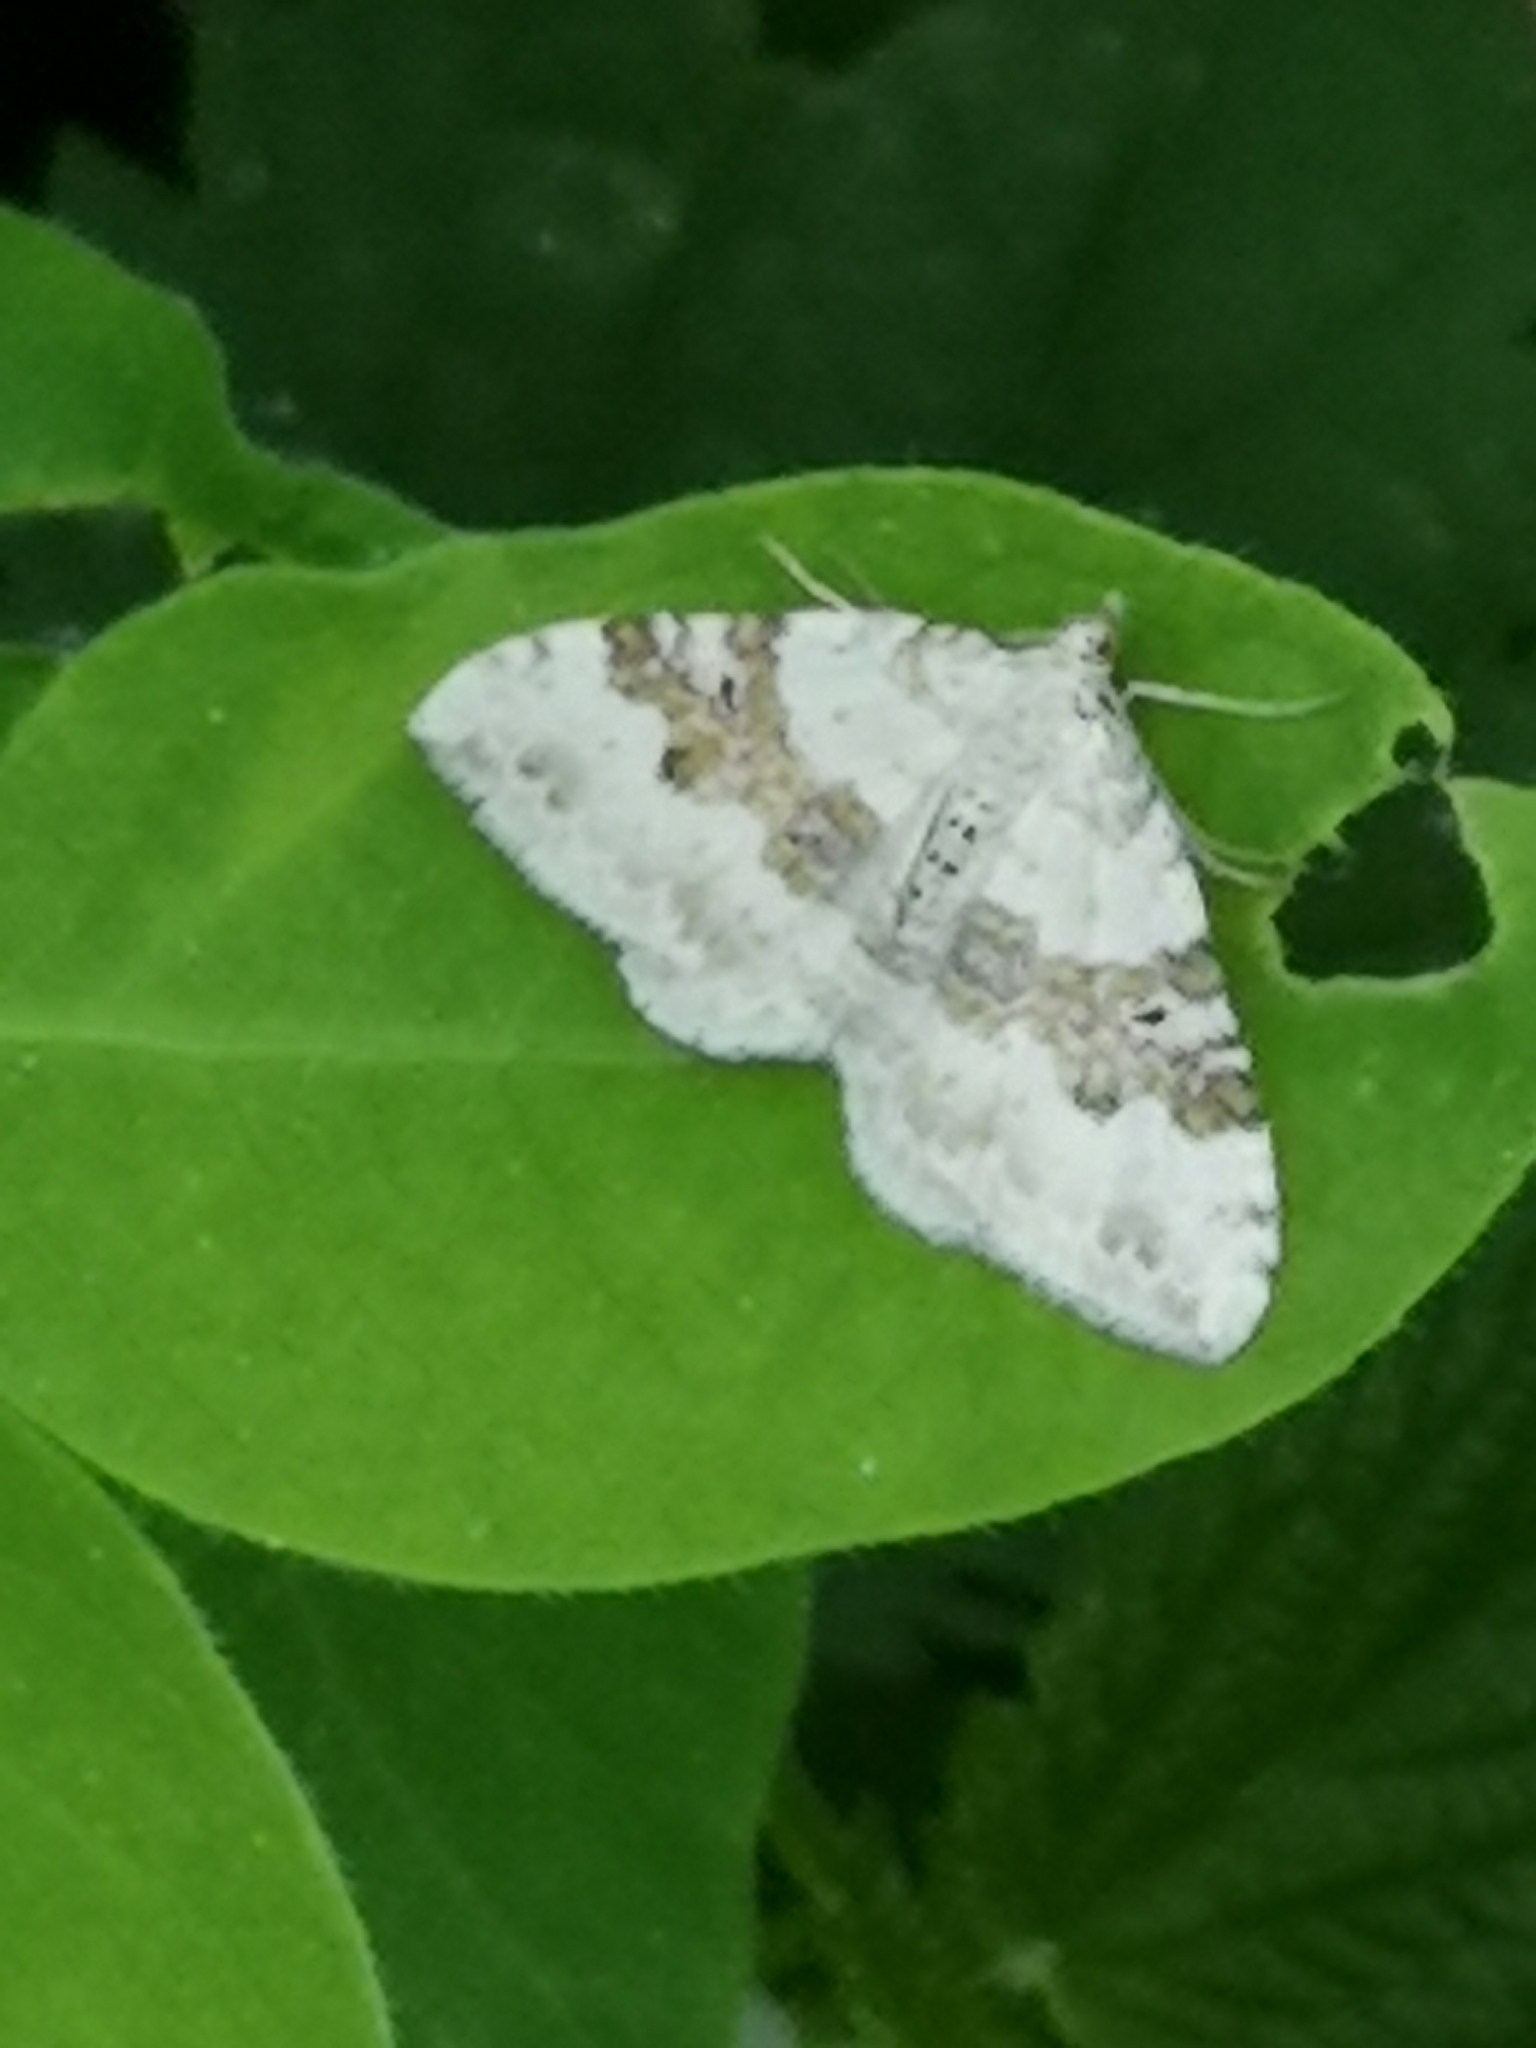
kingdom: Animalia
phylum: Arthropoda
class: Insecta
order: Lepidoptera
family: Geometridae
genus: Xanthorhoe
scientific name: Xanthorhoe montanata
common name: Silver-ground carpet
